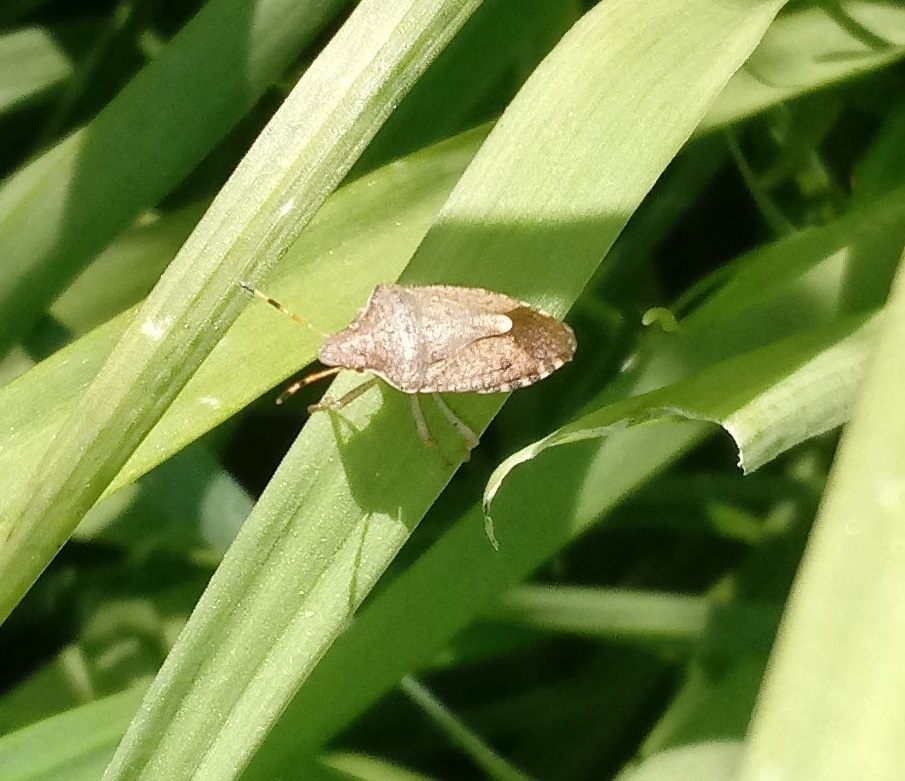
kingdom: Animalia
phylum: Arthropoda
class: Insecta
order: Hemiptera
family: Pentatomidae
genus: Holcostethus
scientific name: Holcostethus strictus
